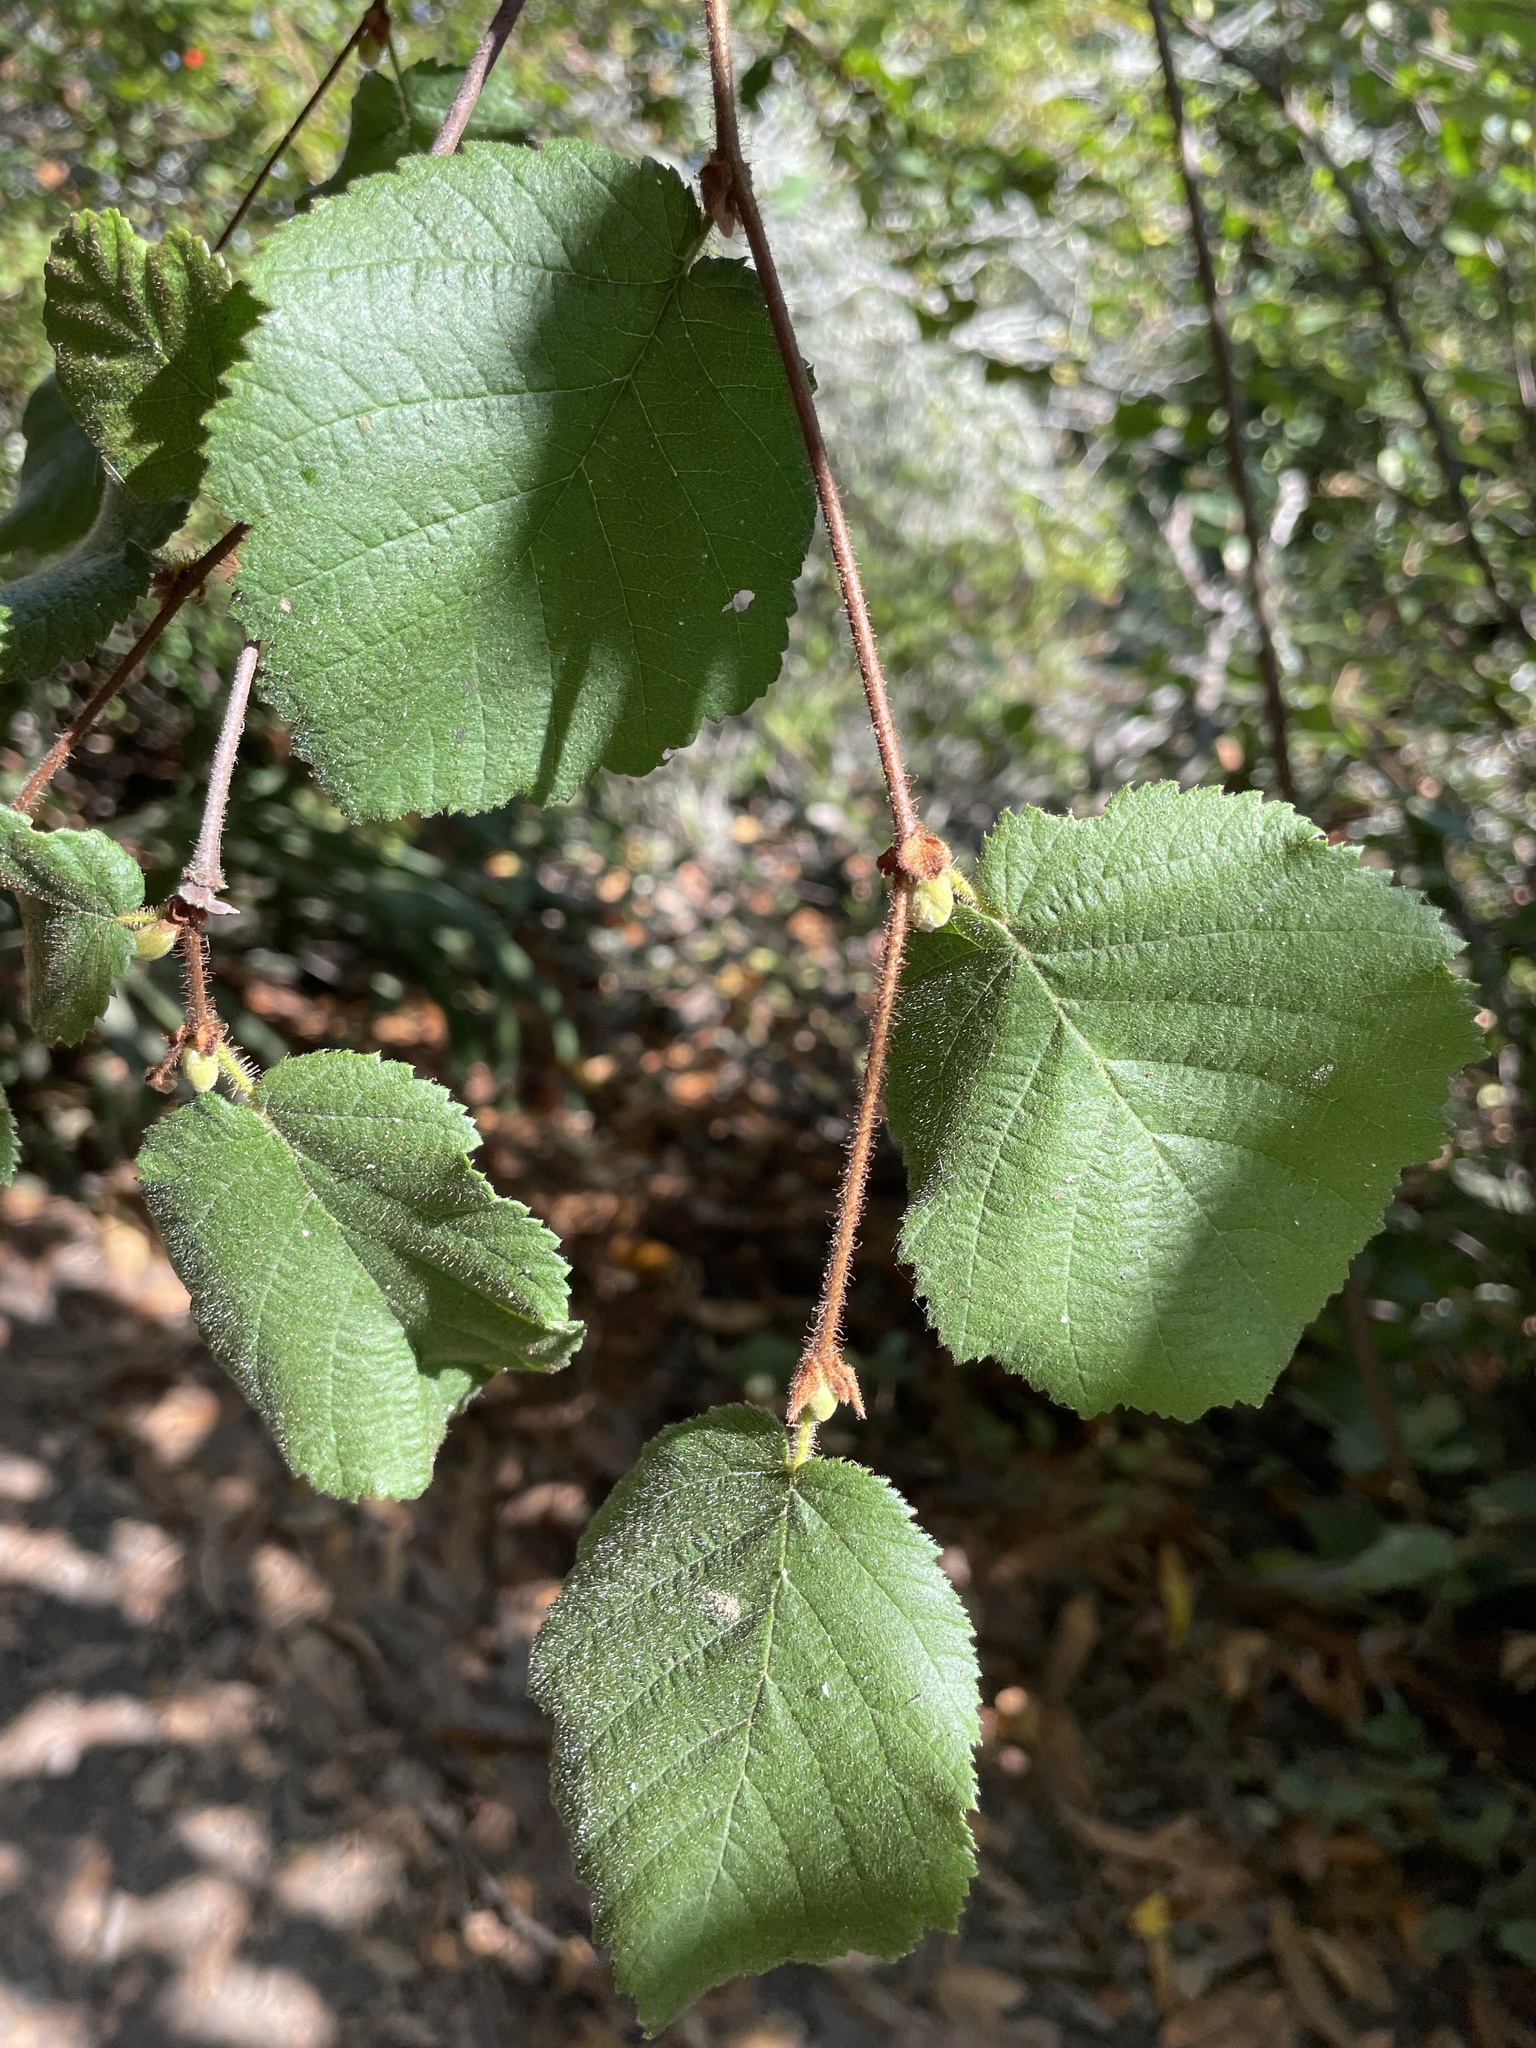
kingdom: Plantae
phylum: Tracheophyta
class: Magnoliopsida
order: Fagales
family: Betulaceae
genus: Corylus
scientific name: Corylus cornuta
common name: Beaked hazel
